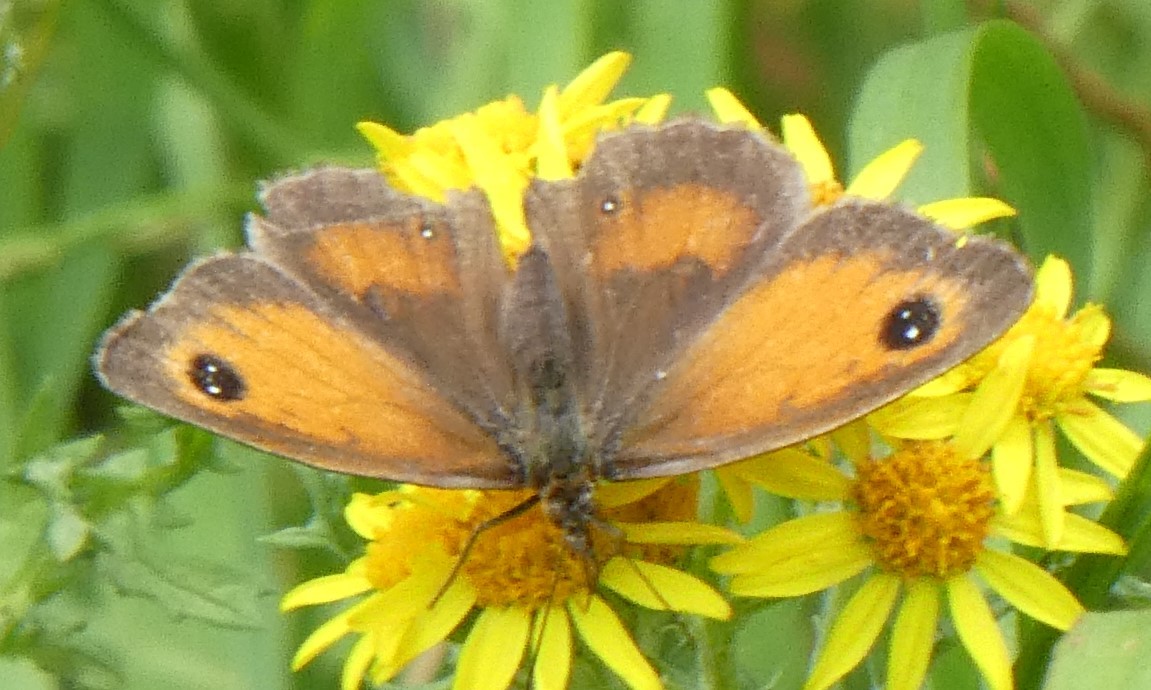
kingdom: Animalia
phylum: Arthropoda
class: Insecta
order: Lepidoptera
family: Nymphalidae
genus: Pyronia
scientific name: Pyronia tithonus
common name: Gatekeeper
